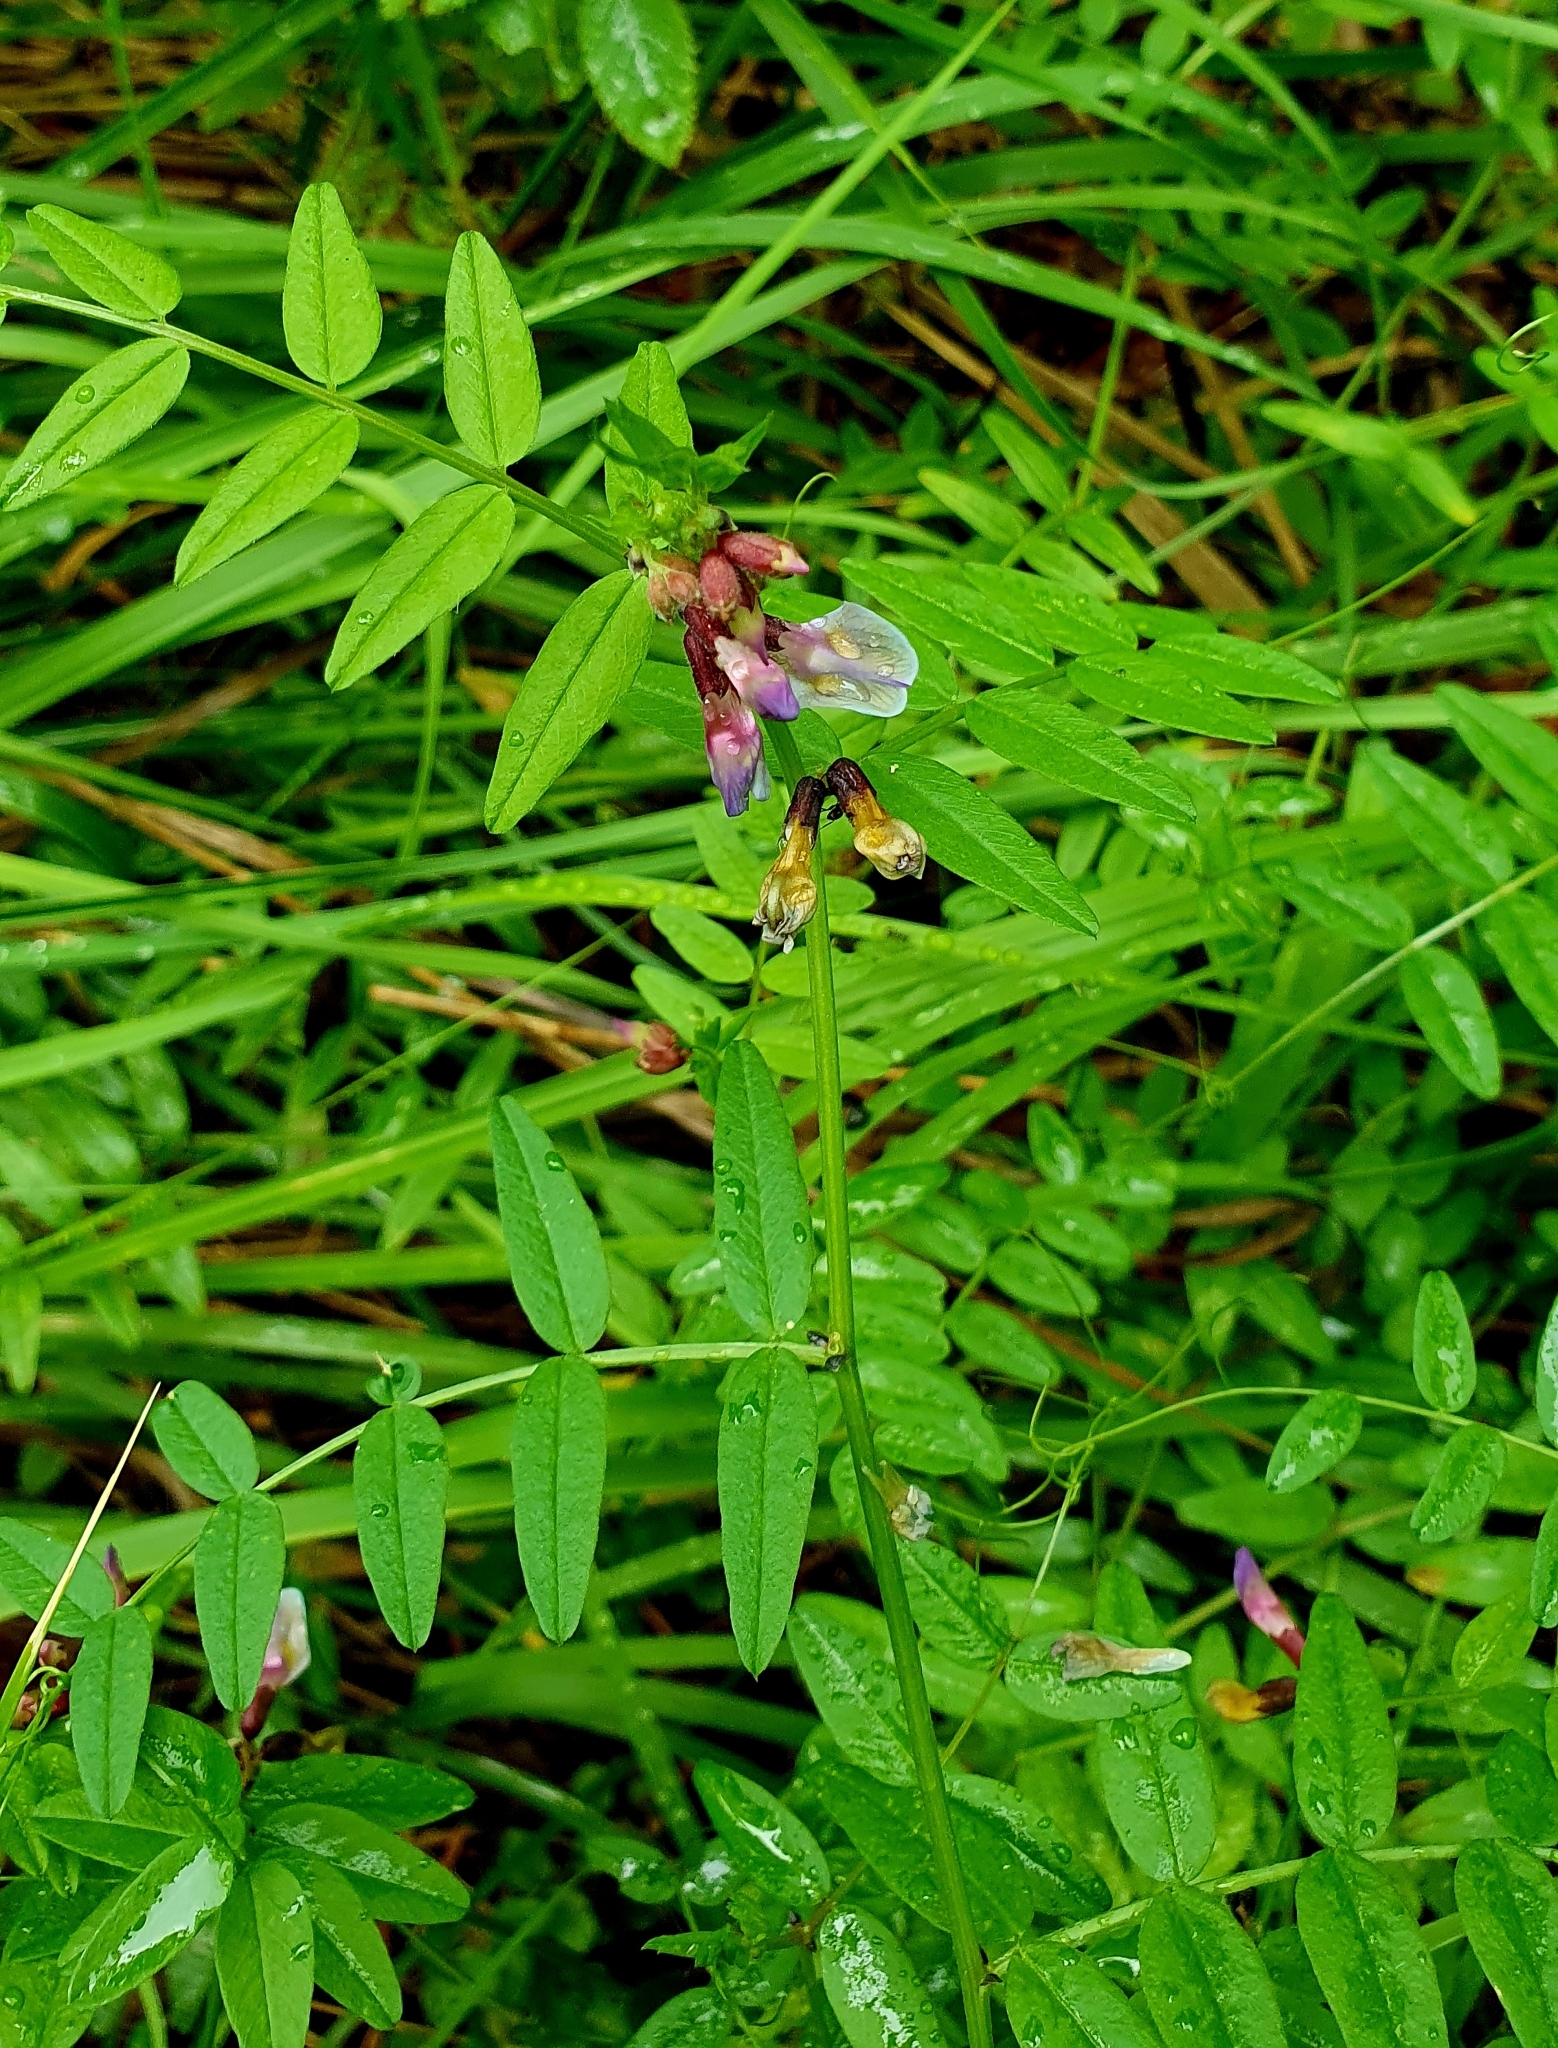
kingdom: Plantae
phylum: Tracheophyta
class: Magnoliopsida
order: Fabales
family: Fabaceae
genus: Vicia
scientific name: Vicia sepium
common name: Bush vetch
